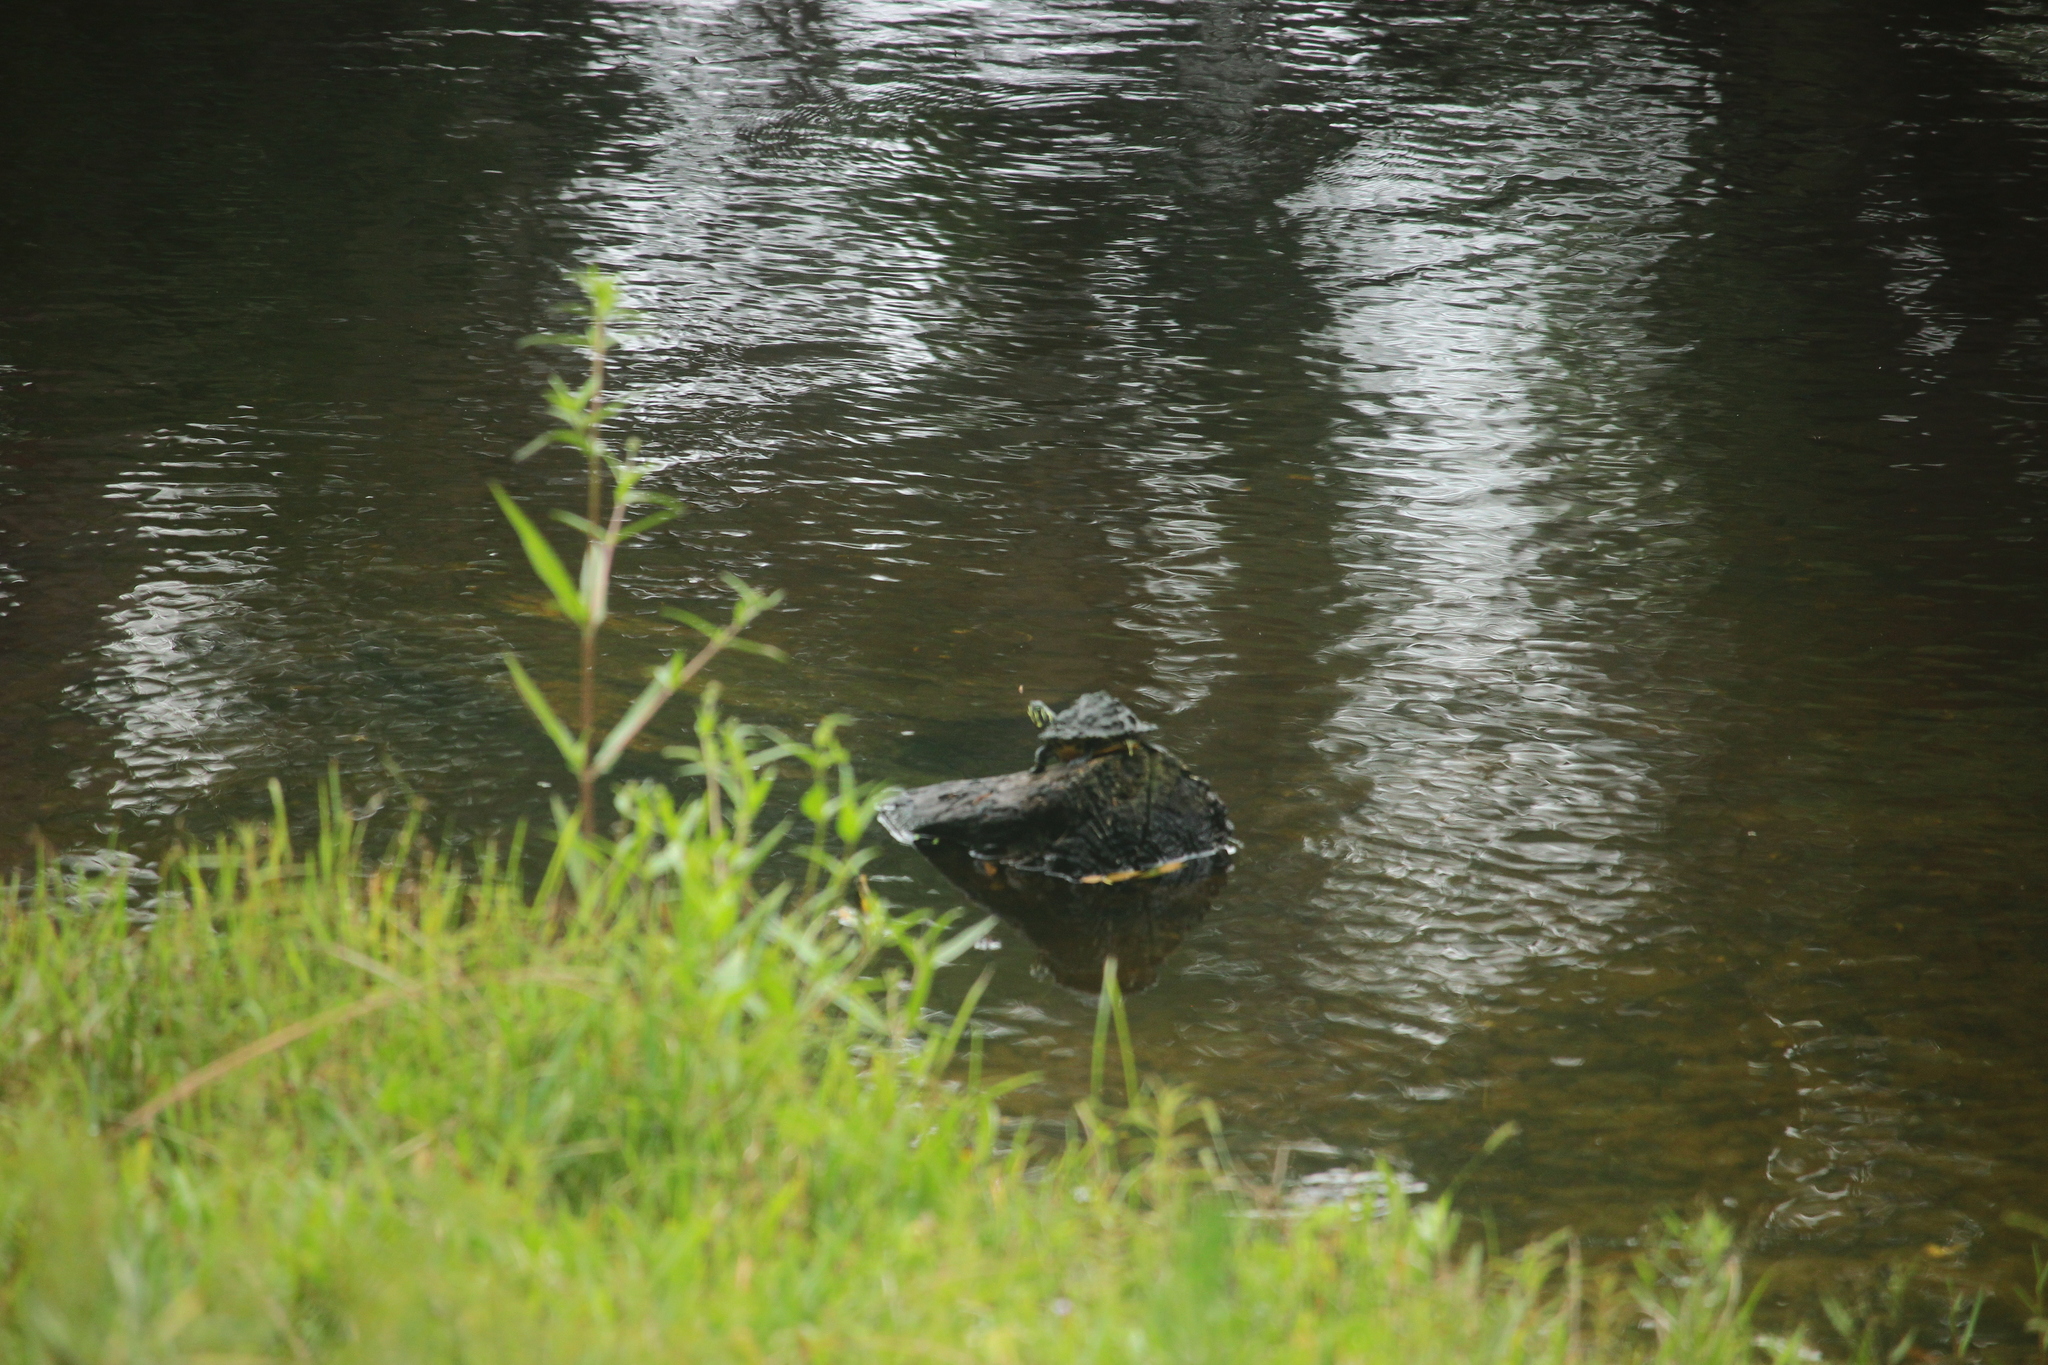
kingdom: Animalia
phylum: Chordata
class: Testudines
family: Emydidae
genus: Trachemys
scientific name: Trachemys scripta
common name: Slider
